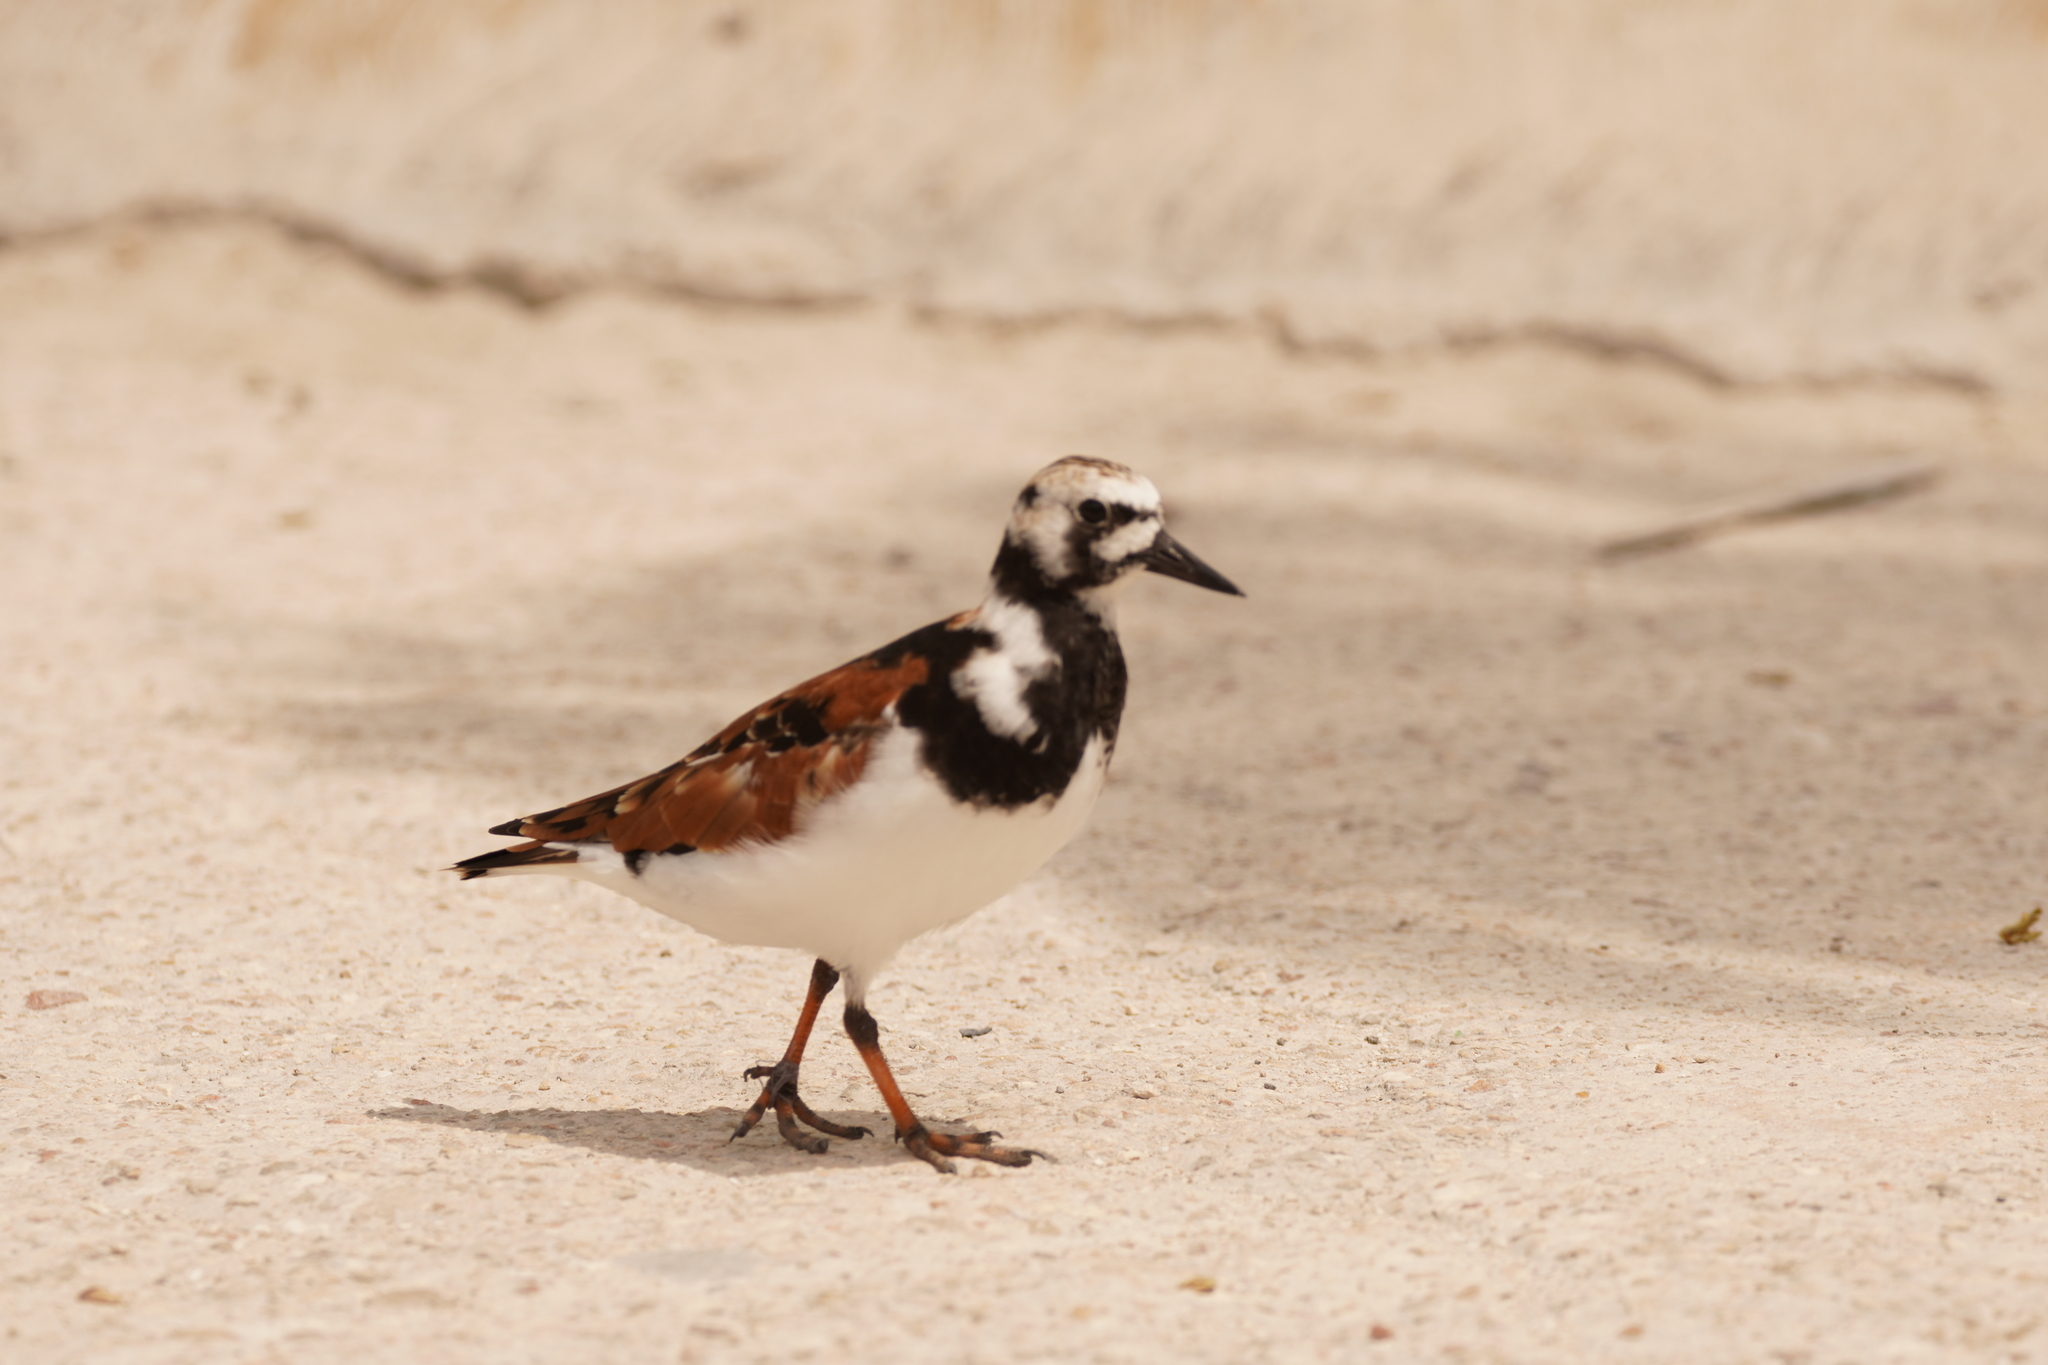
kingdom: Animalia
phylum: Chordata
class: Aves
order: Charadriiformes
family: Scolopacidae
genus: Arenaria
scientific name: Arenaria interpres
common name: Ruddy turnstone
